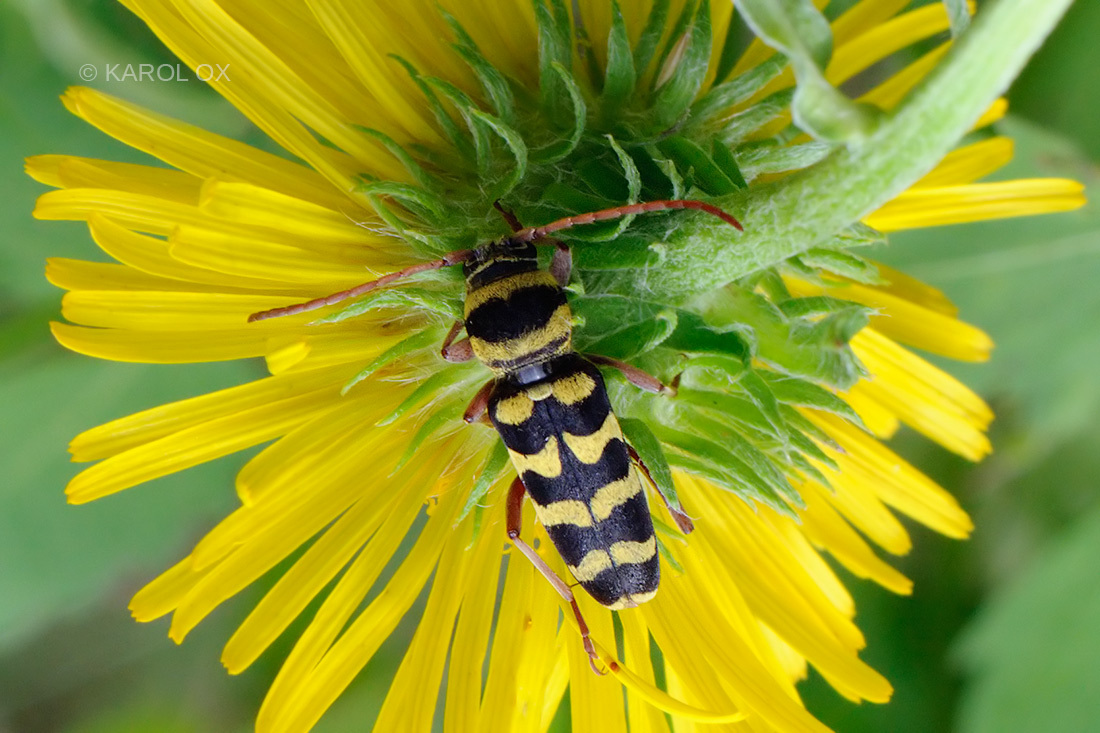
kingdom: Animalia
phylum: Arthropoda
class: Insecta
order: Coleoptera
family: Cerambycidae
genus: Plagionotus
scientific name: Plagionotus floralis
